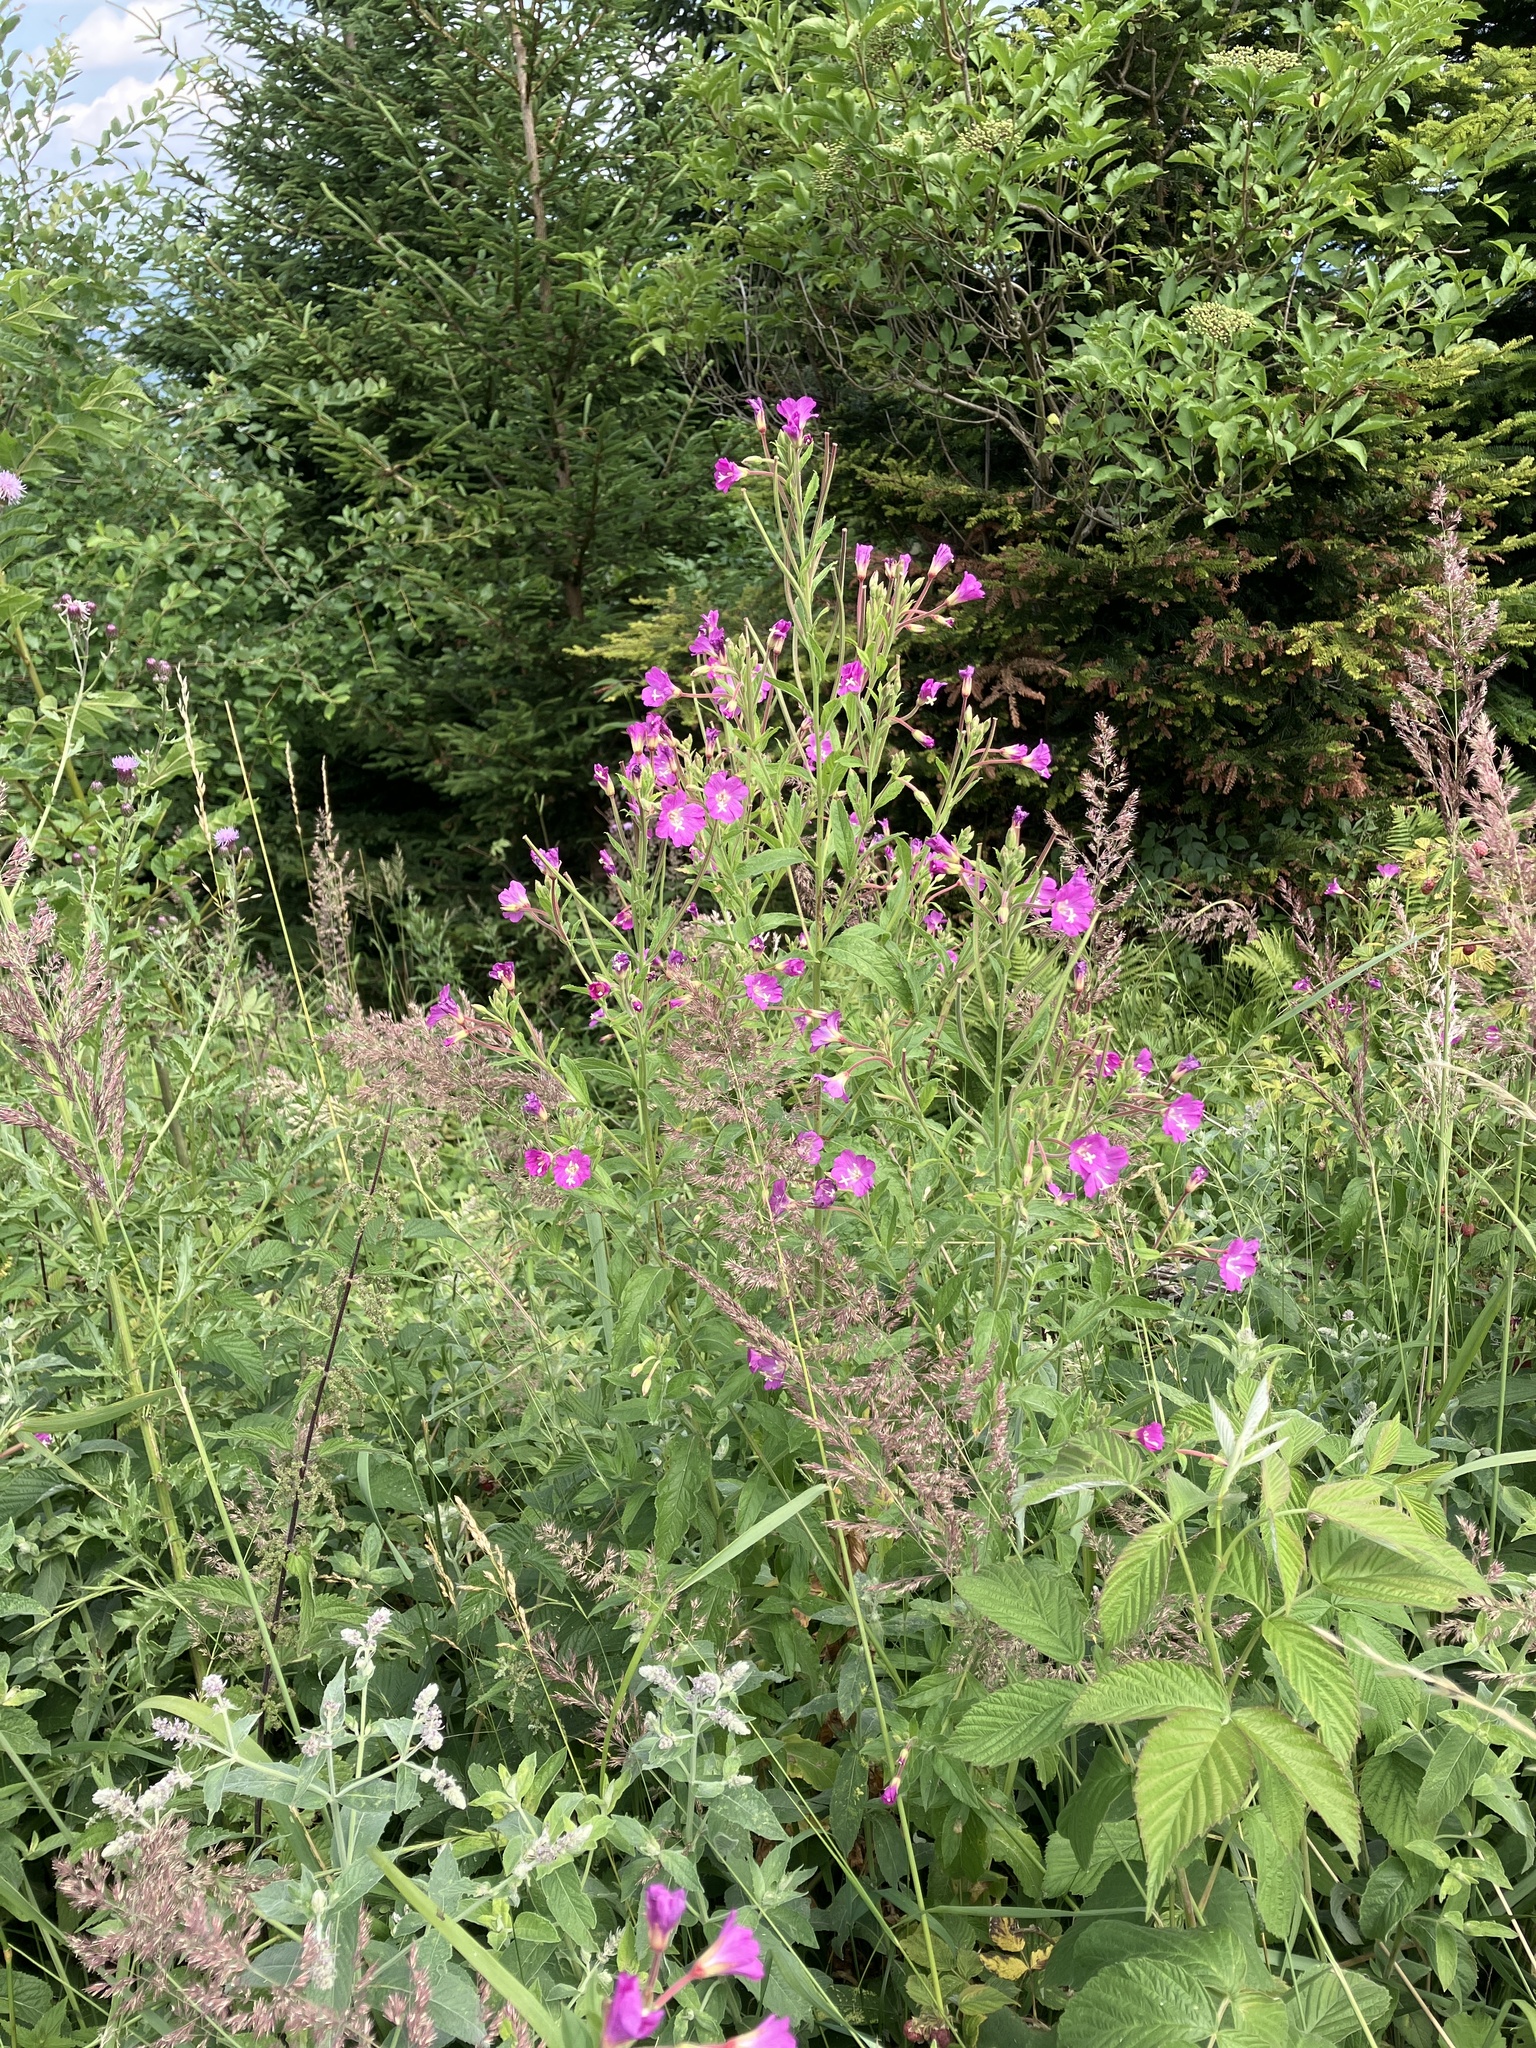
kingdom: Plantae
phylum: Tracheophyta
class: Magnoliopsida
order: Myrtales
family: Onagraceae
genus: Epilobium
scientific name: Epilobium hirsutum
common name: Great willowherb
